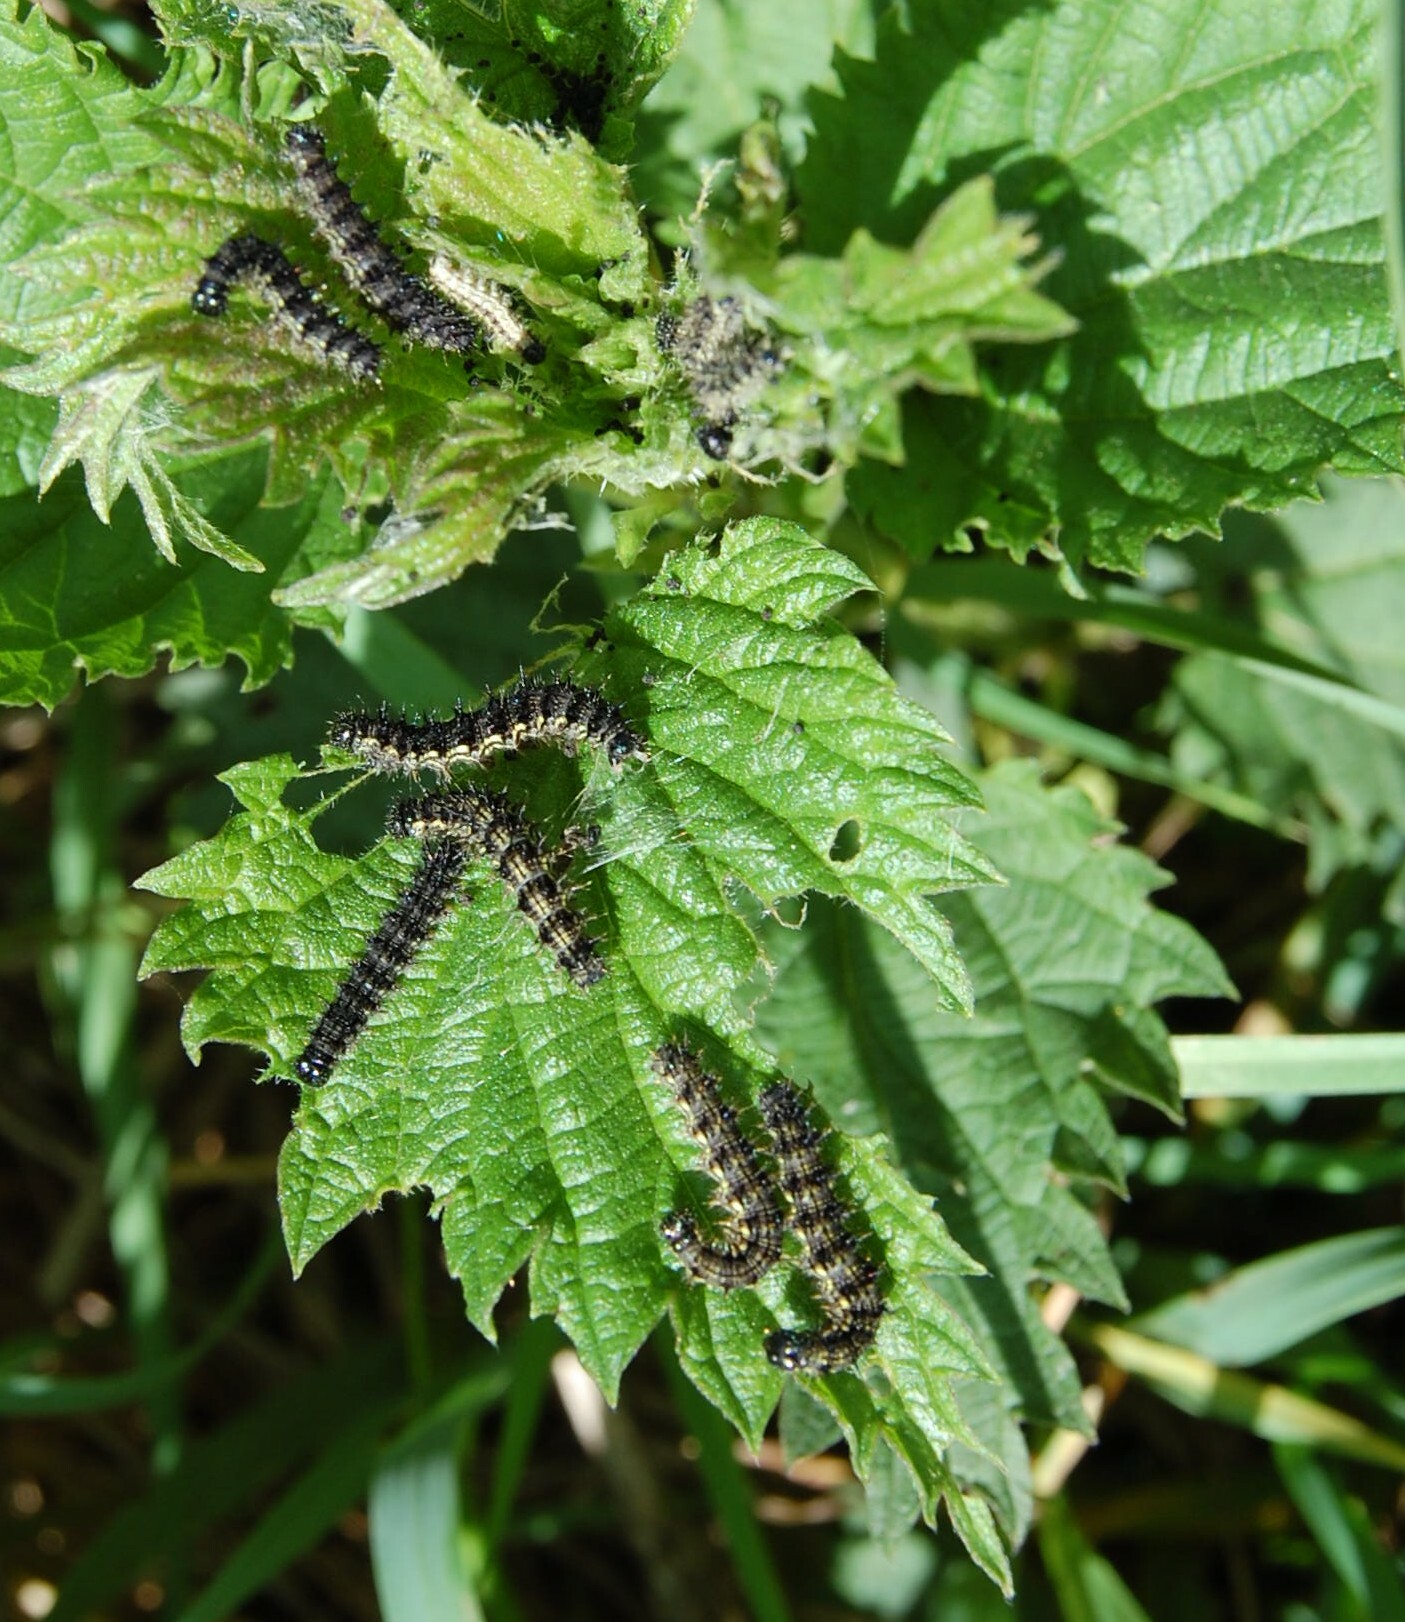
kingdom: Animalia
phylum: Arthropoda
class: Insecta
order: Lepidoptera
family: Nymphalidae
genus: Aglais
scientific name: Aglais urticae
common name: Small tortoiseshell
